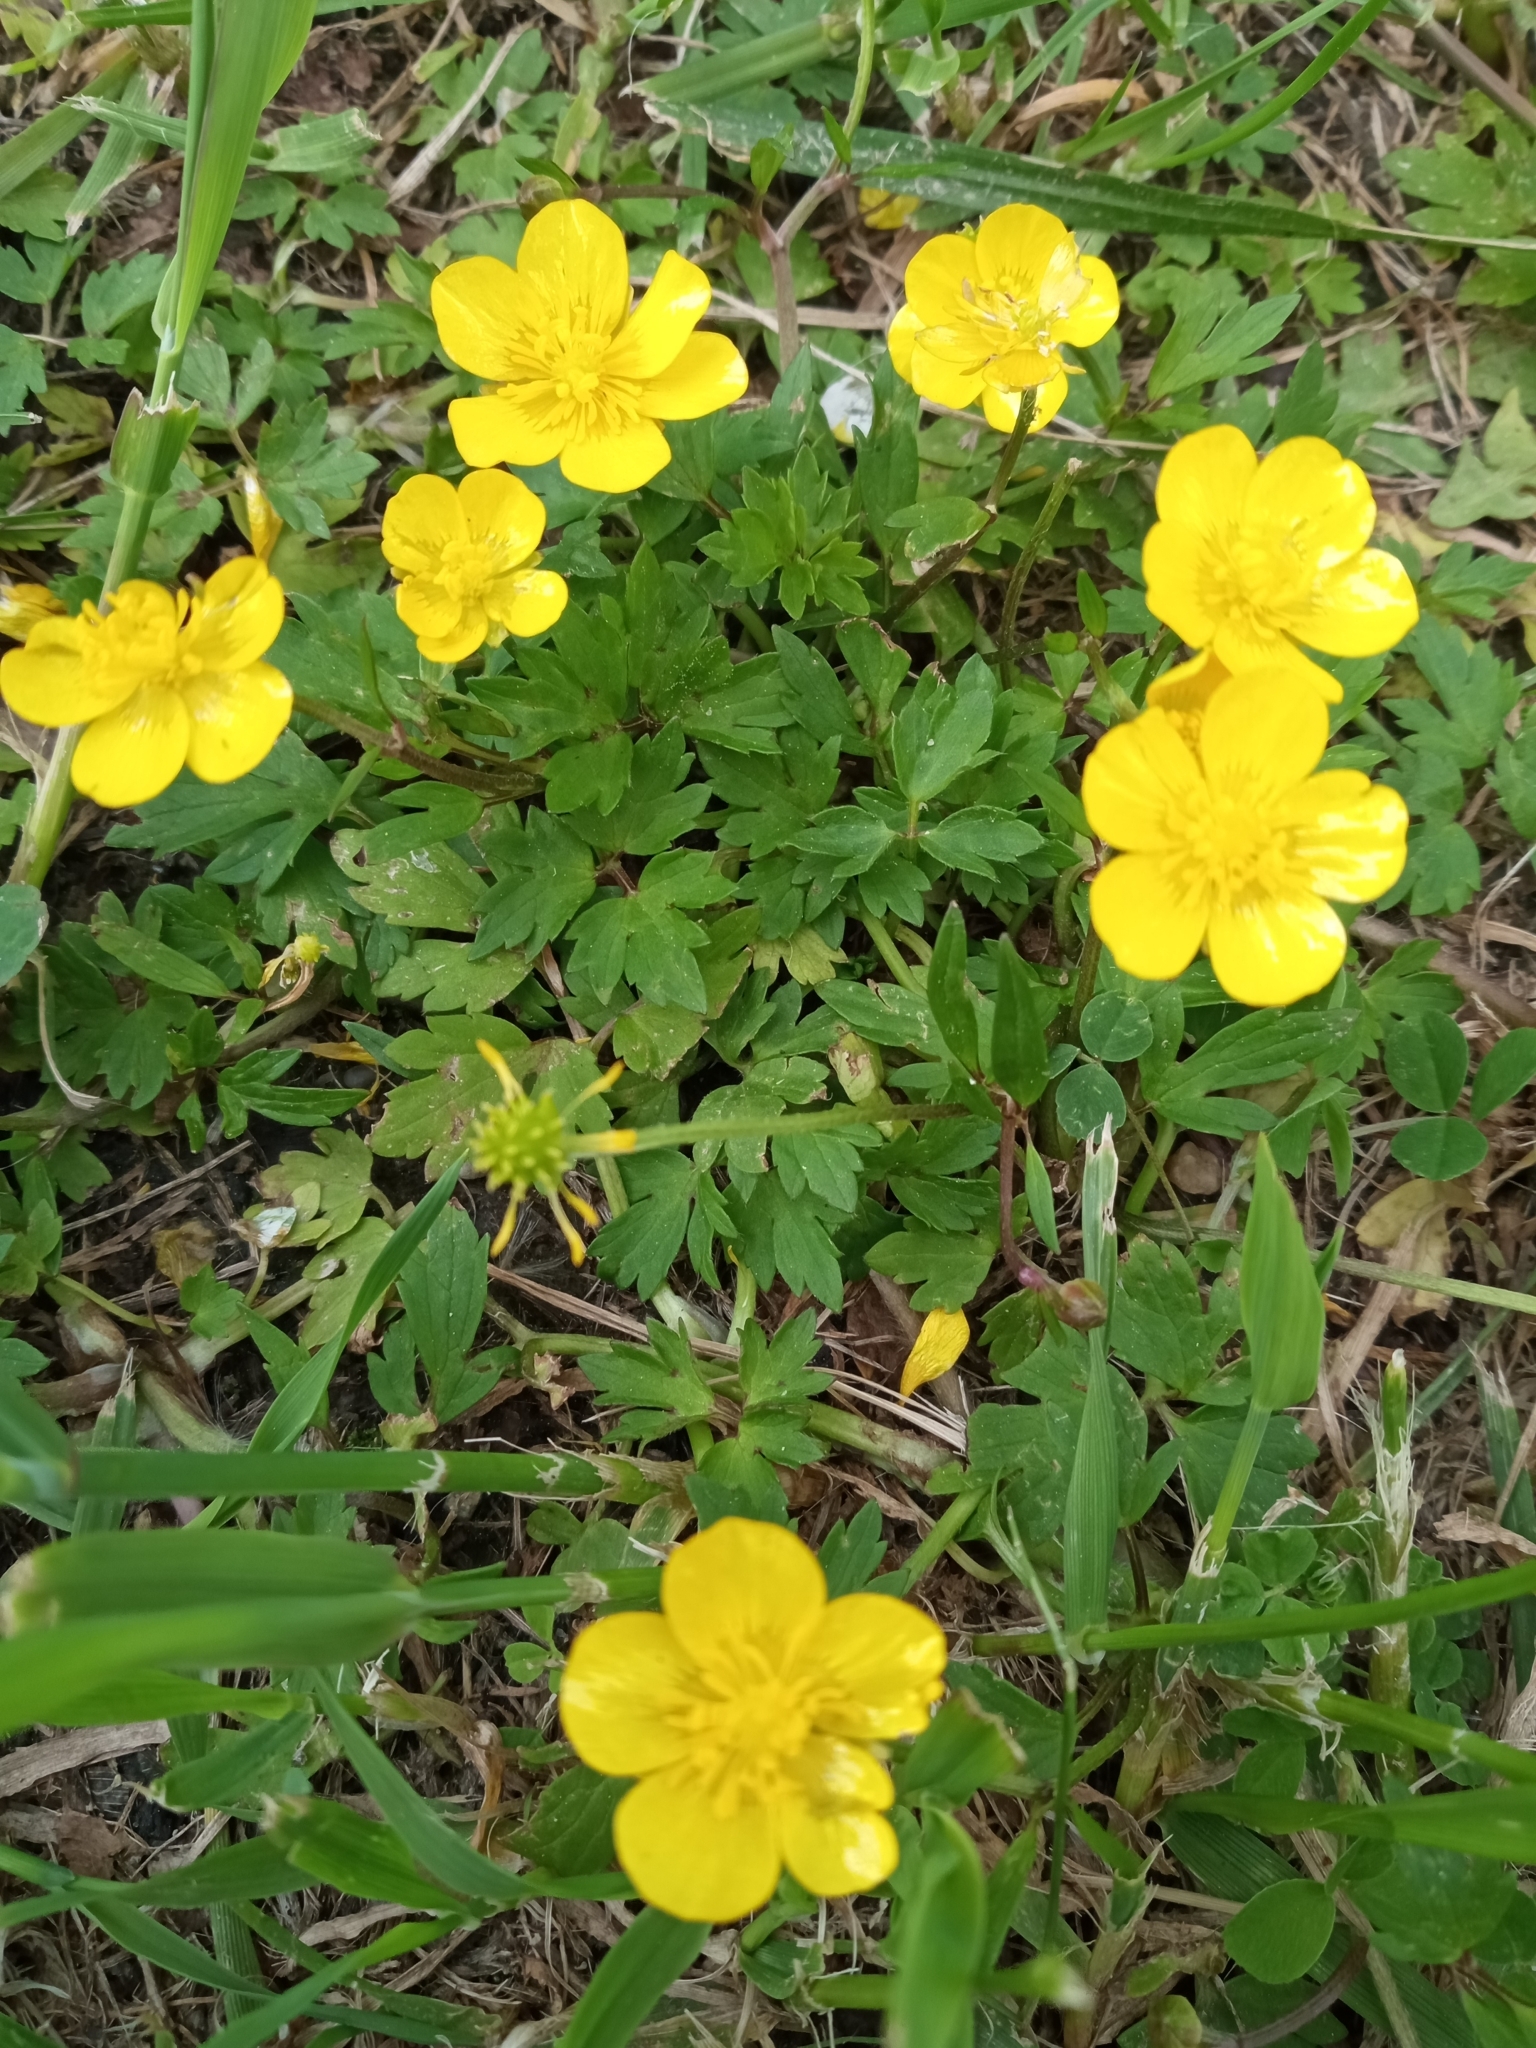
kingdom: Plantae
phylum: Tracheophyta
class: Magnoliopsida
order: Ranunculales
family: Ranunculaceae
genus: Ranunculus
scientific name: Ranunculus repens
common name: Creeping buttercup
